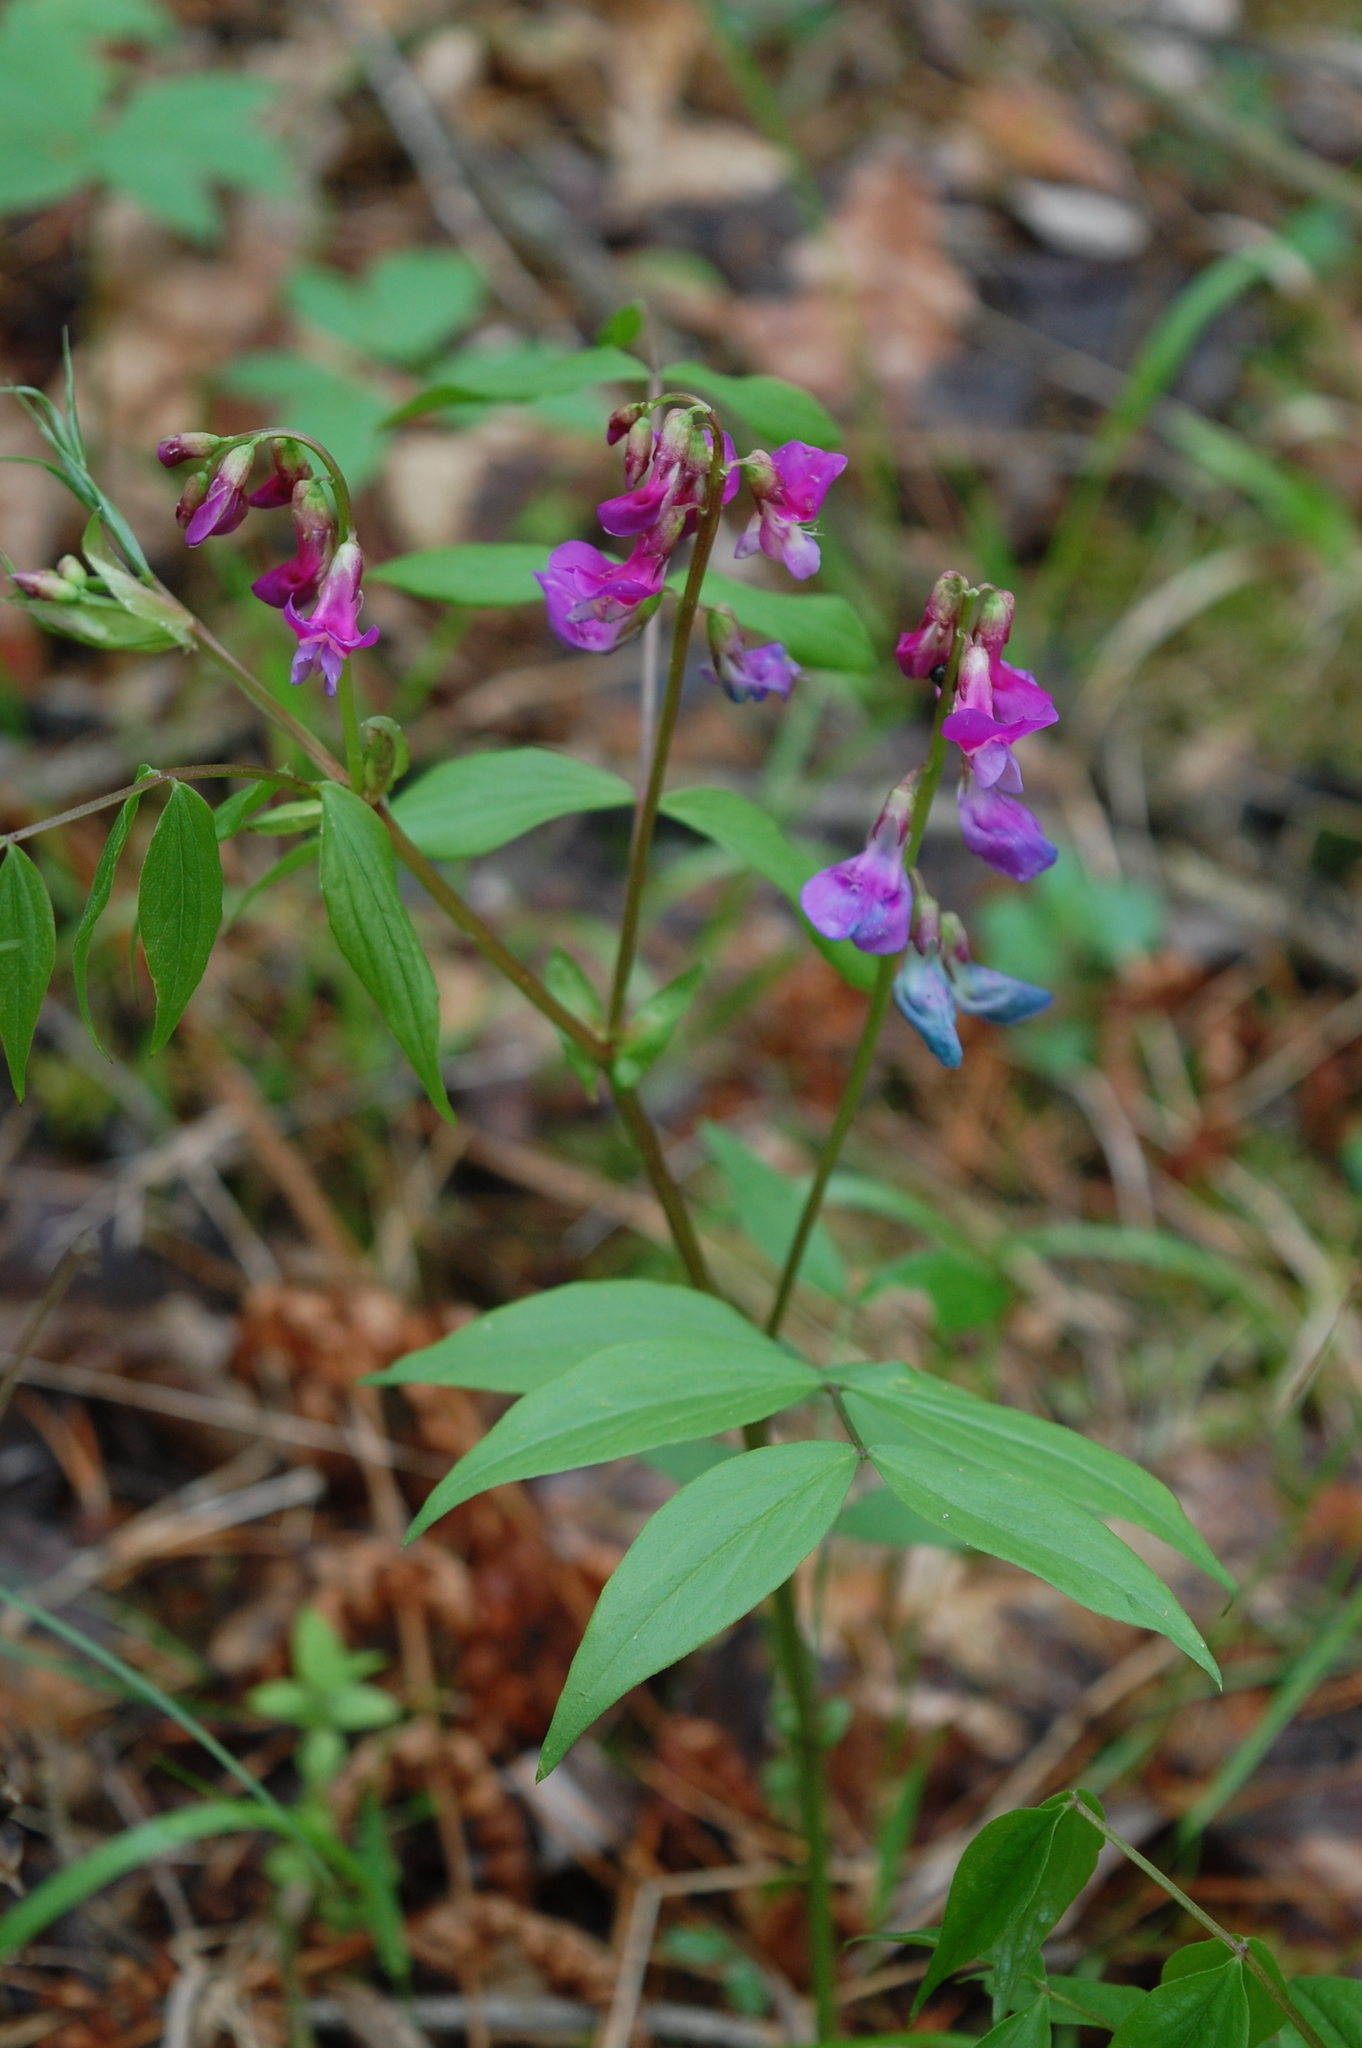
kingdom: Plantae
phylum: Tracheophyta
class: Magnoliopsida
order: Fabales
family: Fabaceae
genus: Lathyrus
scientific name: Lathyrus vernus
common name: Spring pea
